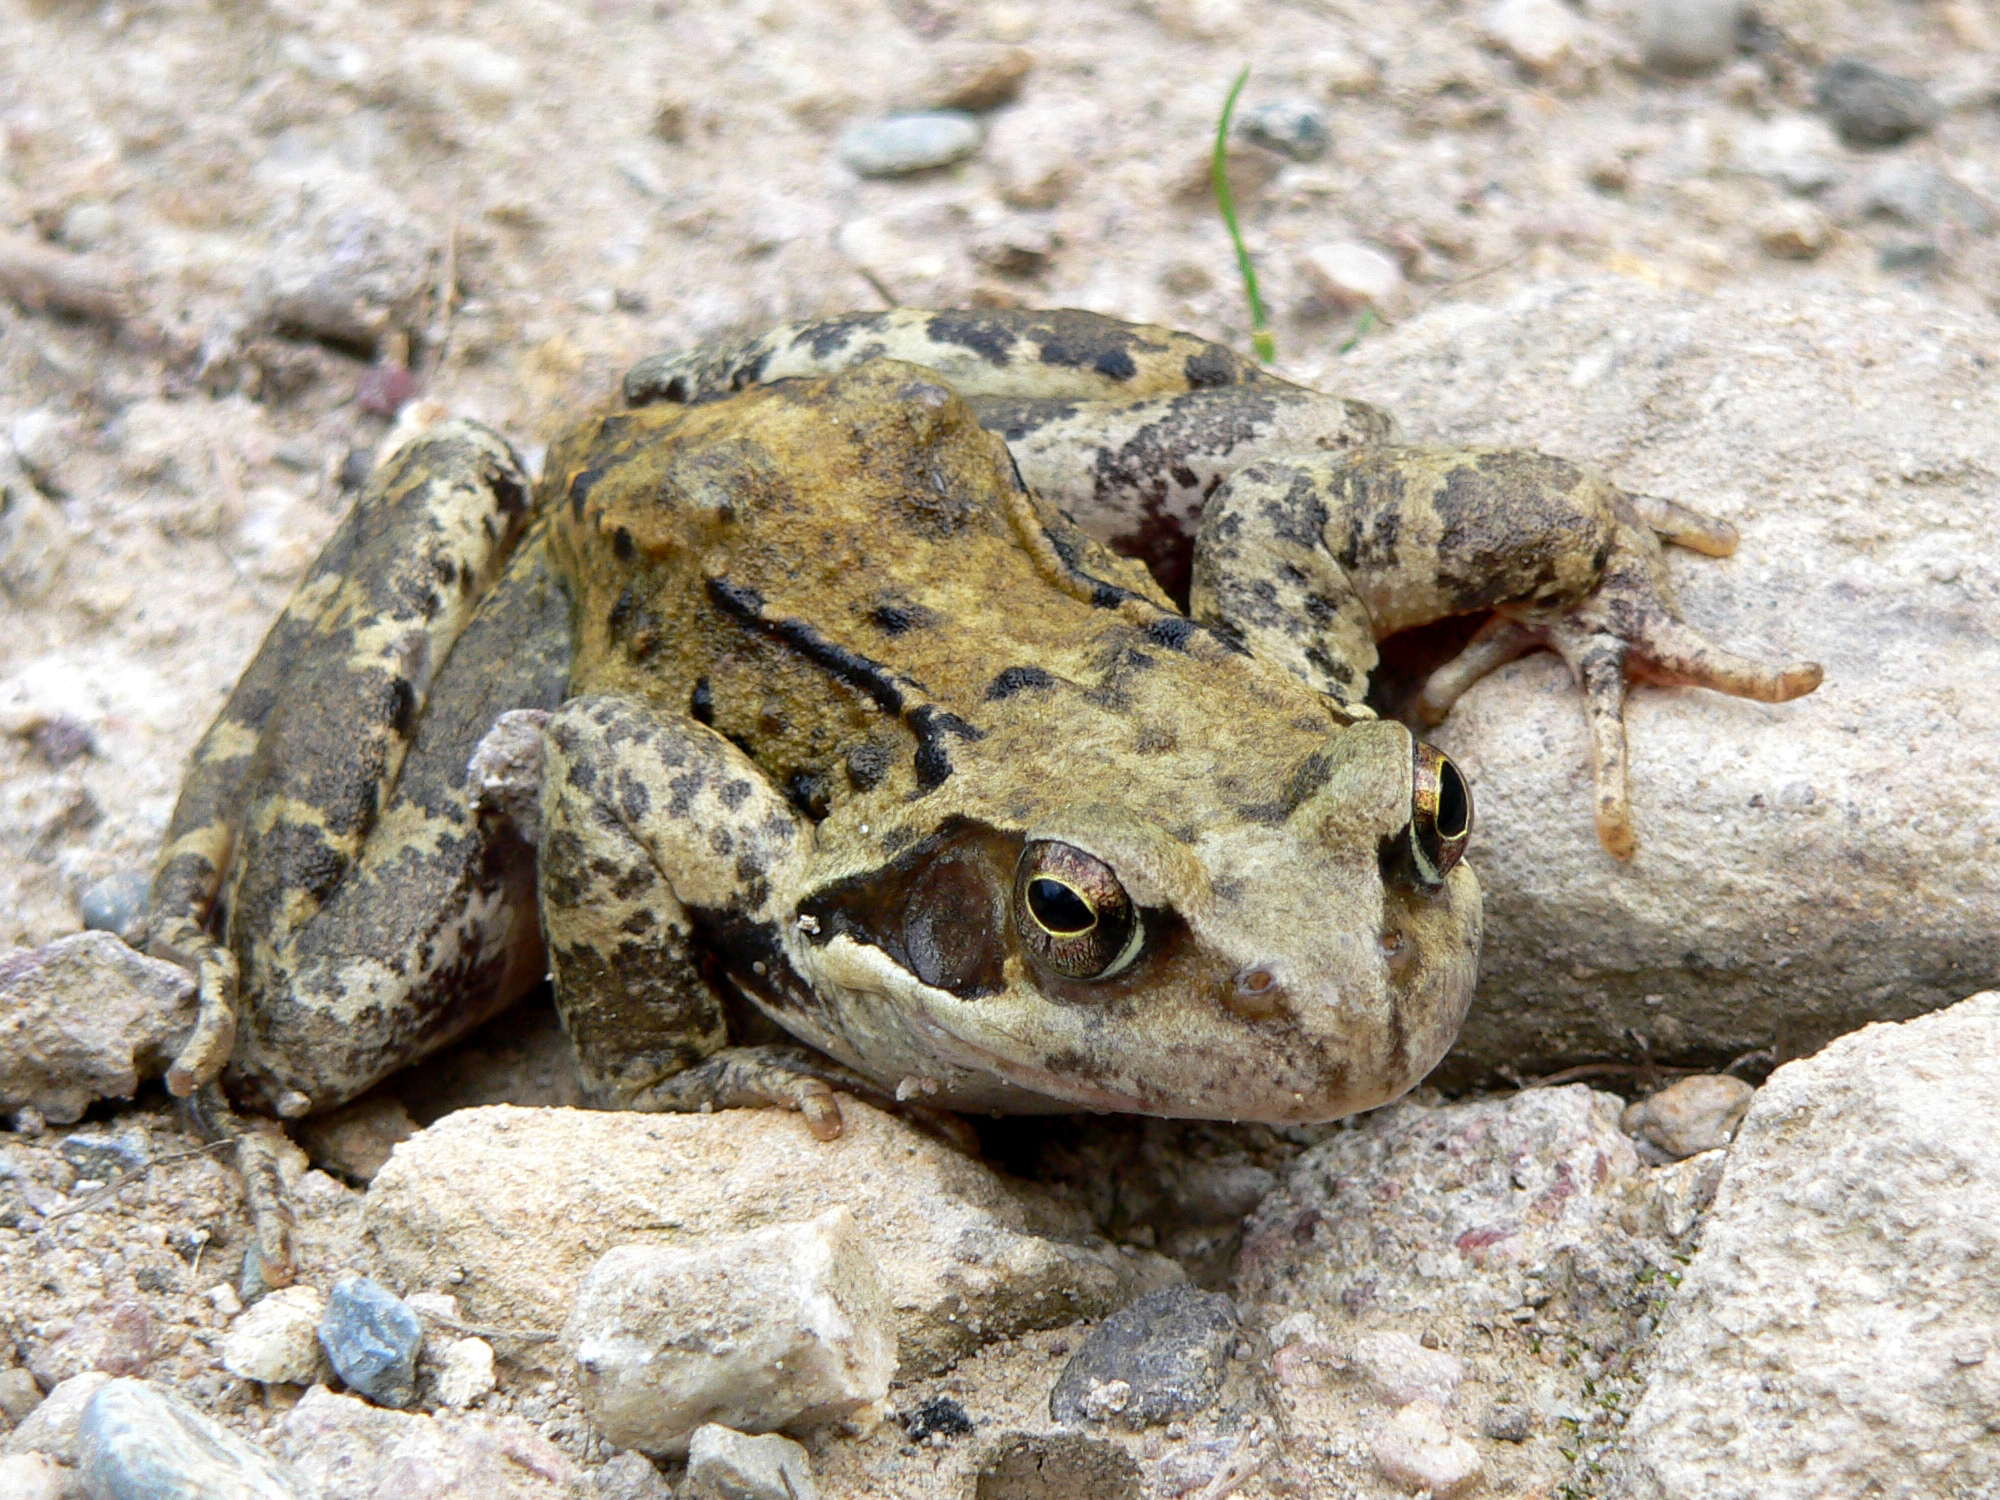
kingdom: Animalia
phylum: Chordata
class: Amphibia
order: Anura
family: Ranidae
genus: Rana
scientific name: Rana temporaria
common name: Common frog
